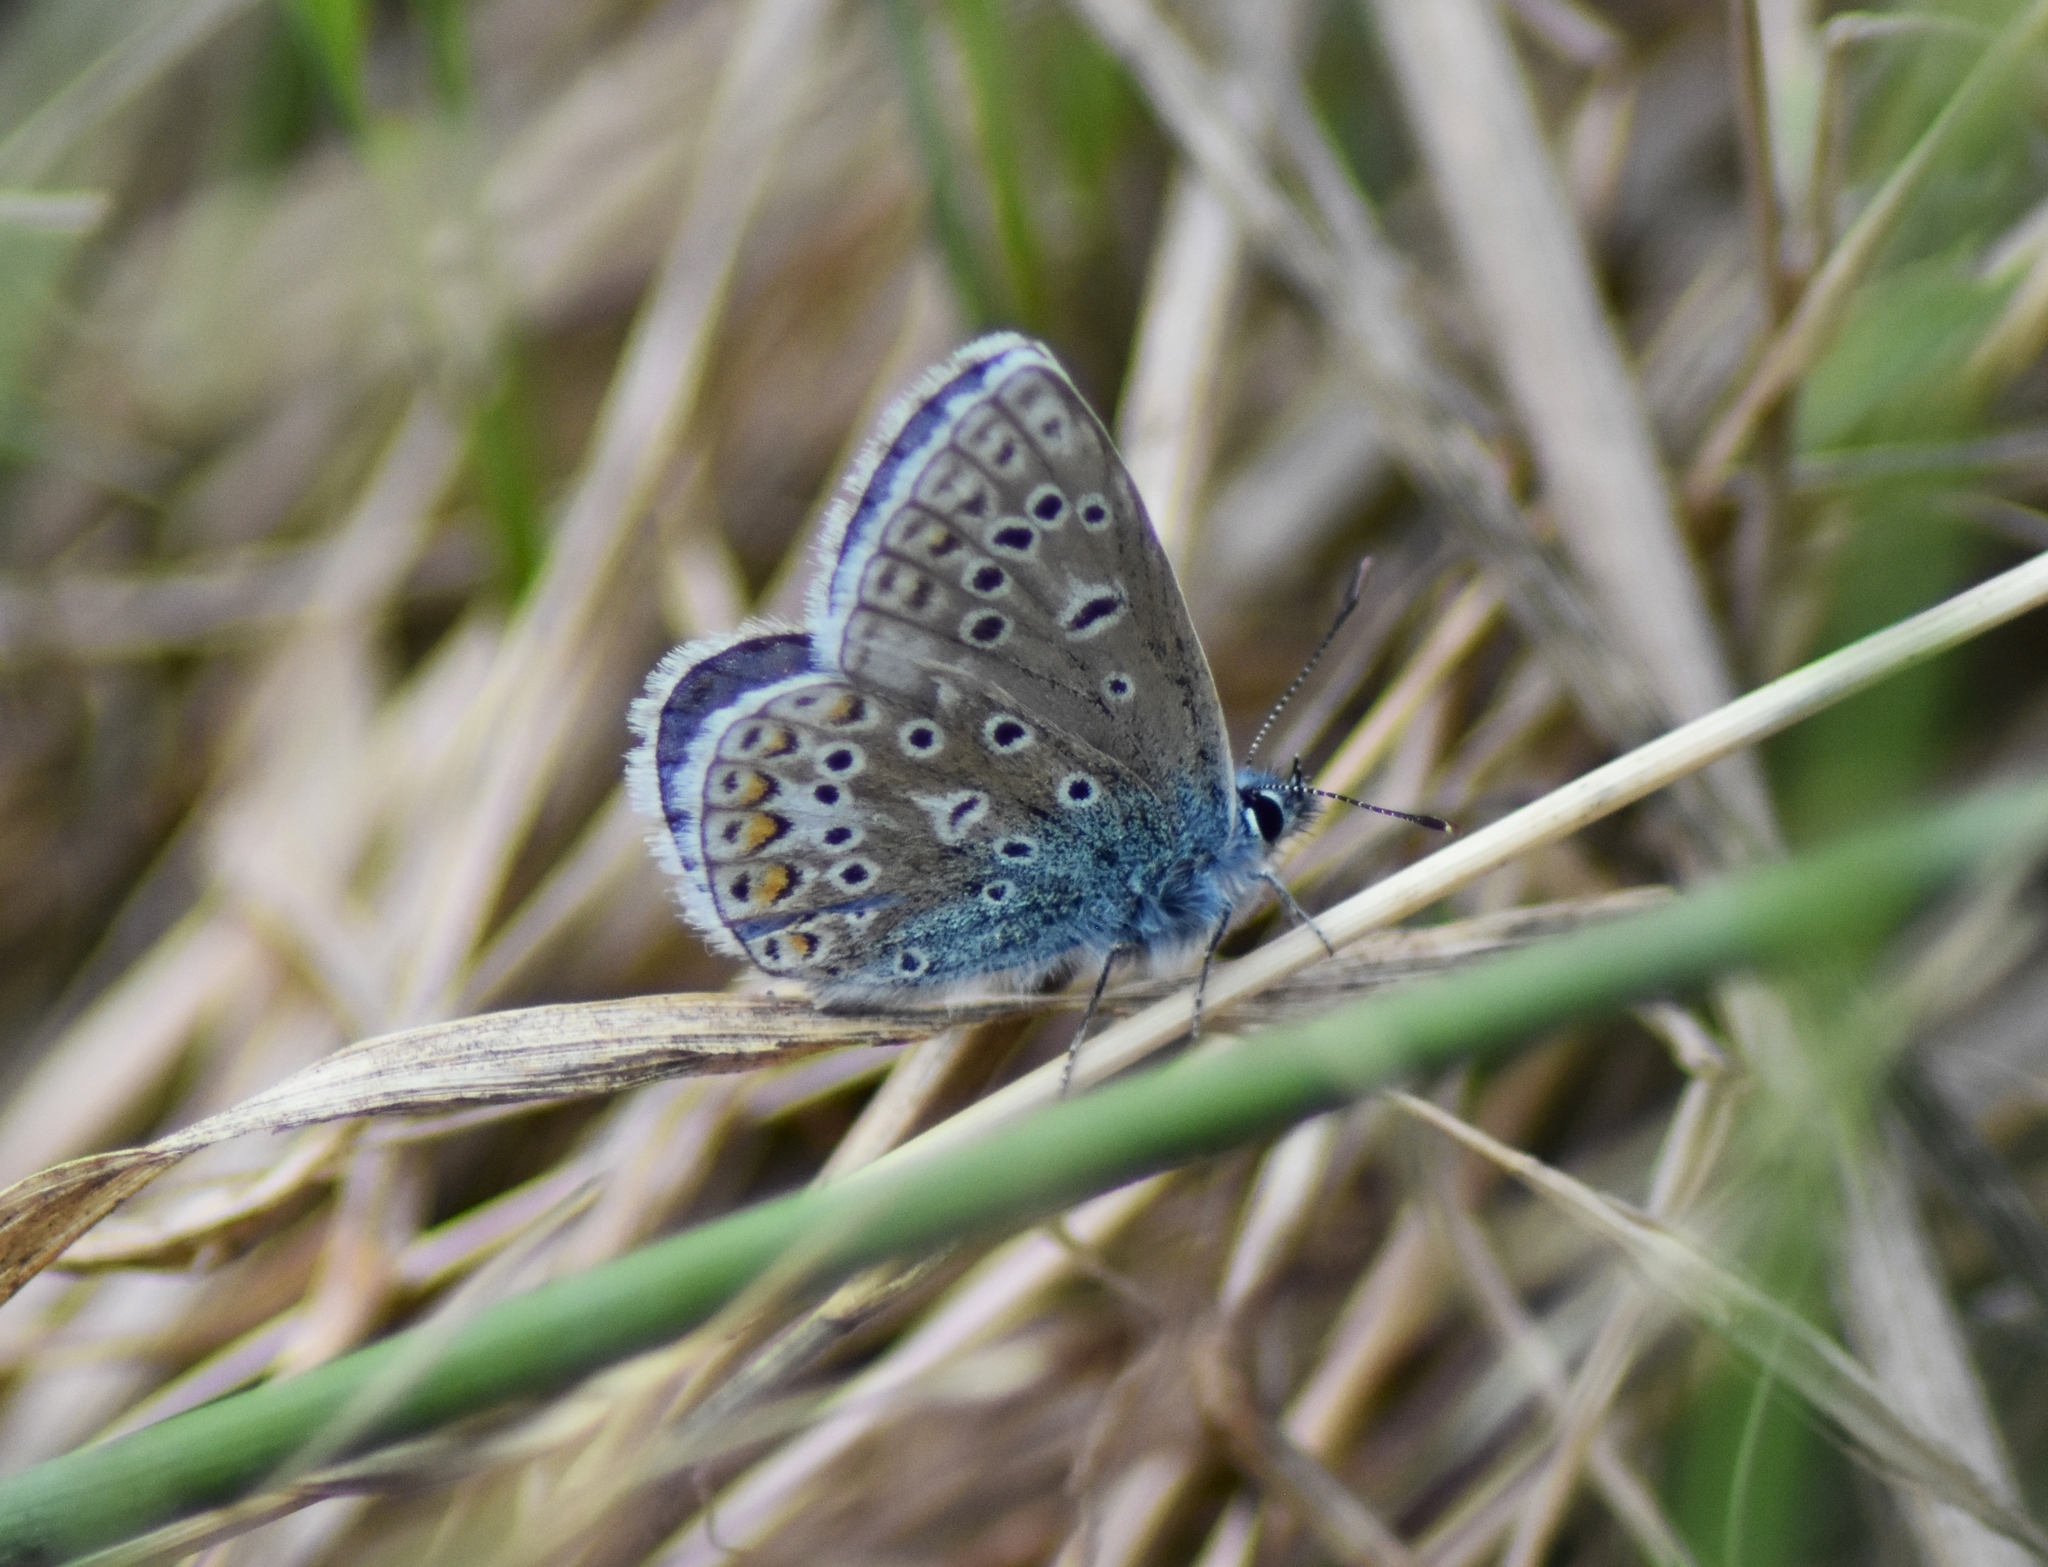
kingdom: Animalia
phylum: Arthropoda
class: Insecta
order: Lepidoptera
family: Lycaenidae
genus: Polyommatus
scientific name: Polyommatus icarus
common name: Common blue
